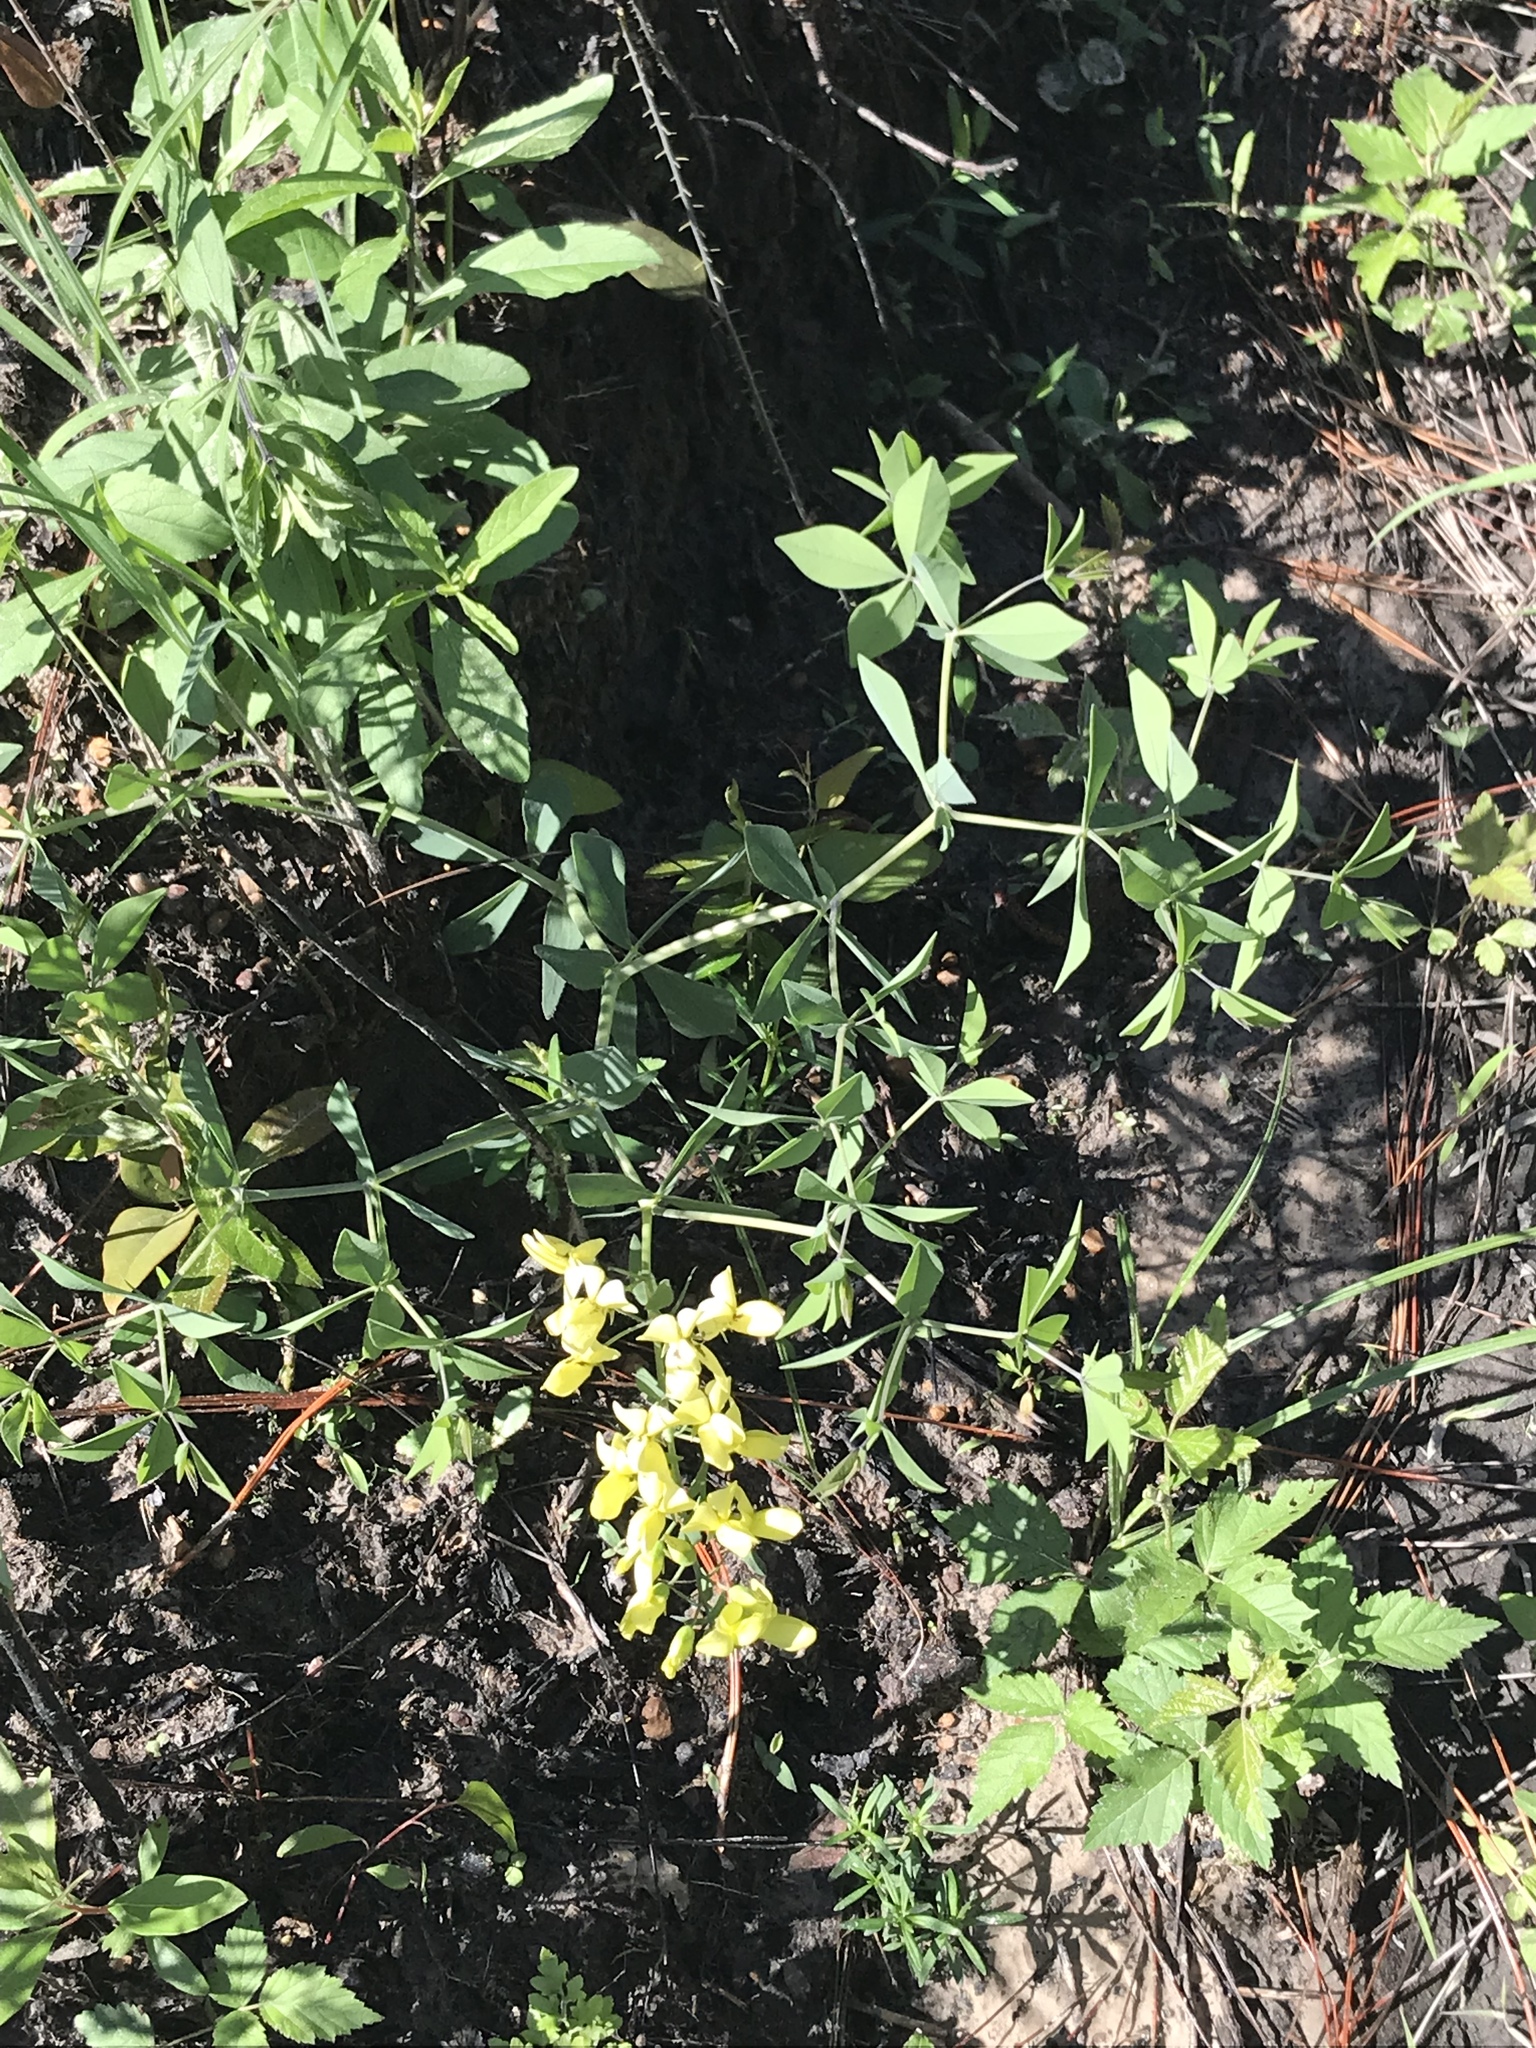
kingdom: Plantae
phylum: Tracheophyta
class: Magnoliopsida
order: Fabales
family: Fabaceae
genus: Baptisia
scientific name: Baptisia bracteata
